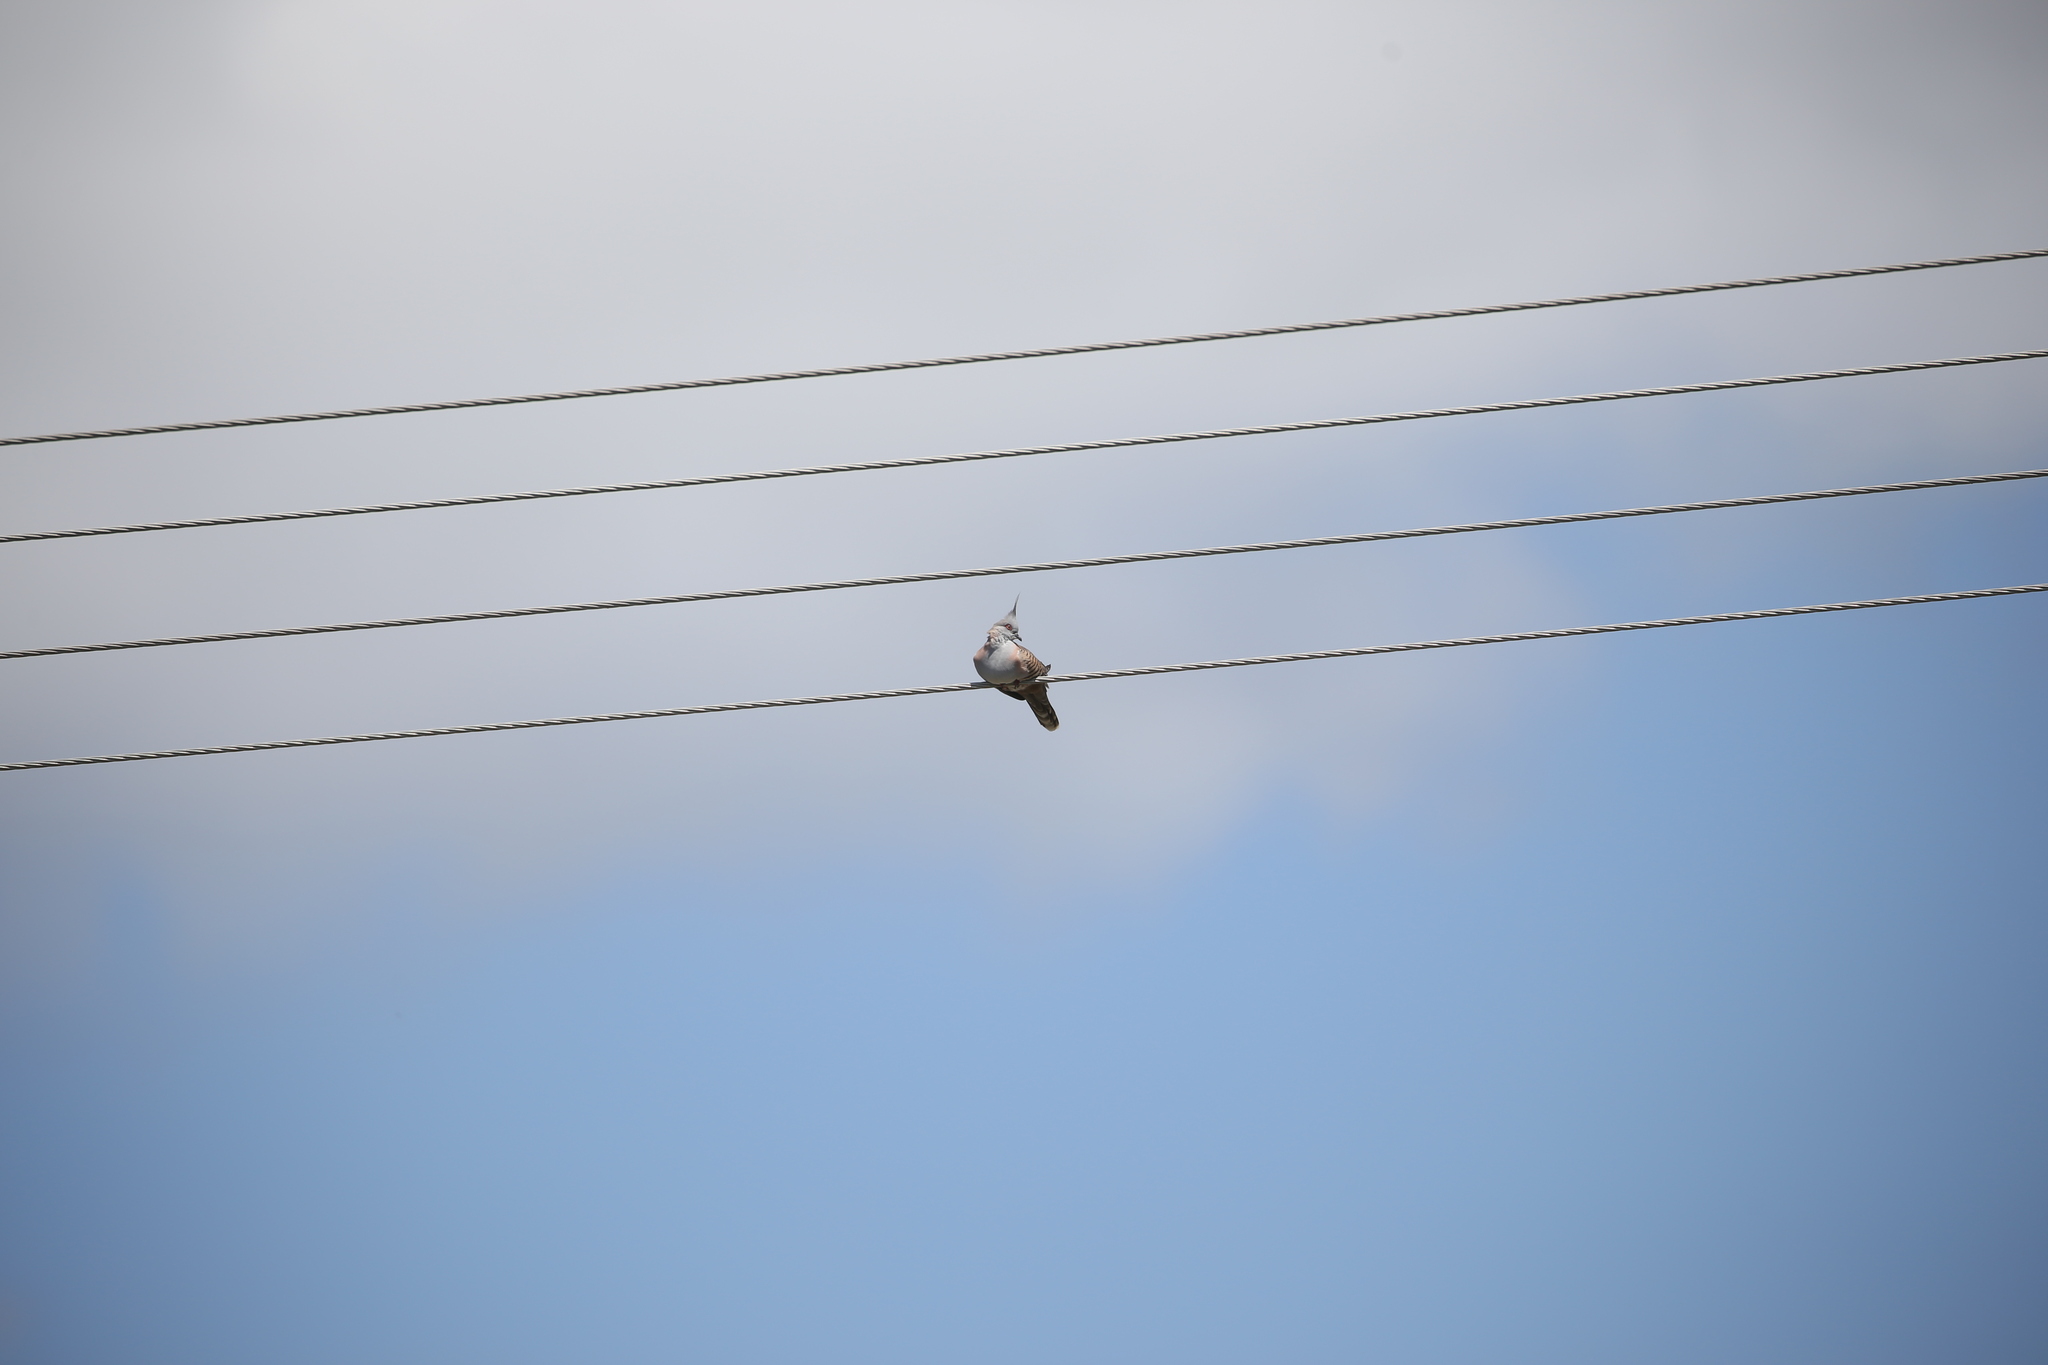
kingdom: Animalia
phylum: Chordata
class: Aves
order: Columbiformes
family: Columbidae
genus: Ocyphaps
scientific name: Ocyphaps lophotes
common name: Crested pigeon
